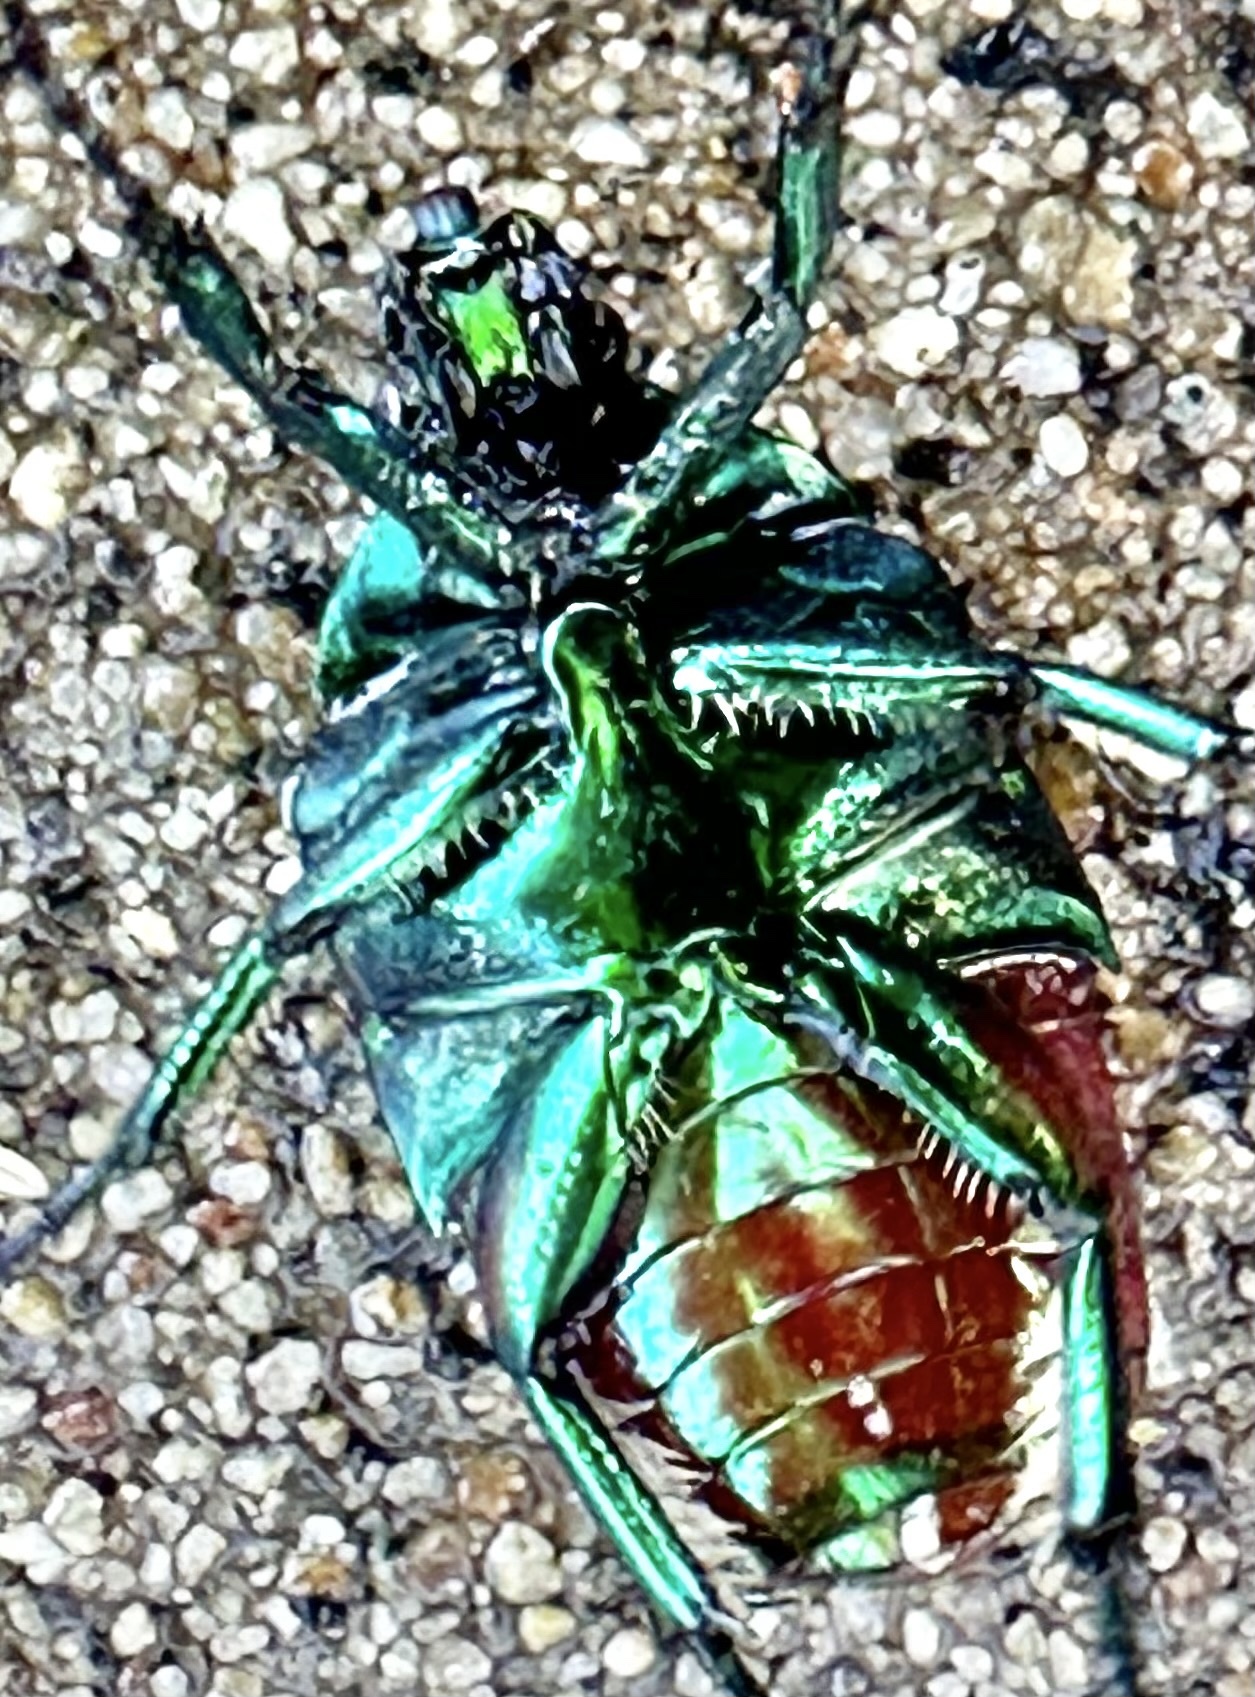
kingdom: Animalia
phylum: Arthropoda
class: Insecta
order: Coleoptera
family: Scarabaeidae
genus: Cotinis
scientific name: Cotinis mutabilis
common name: Figeater beetle
